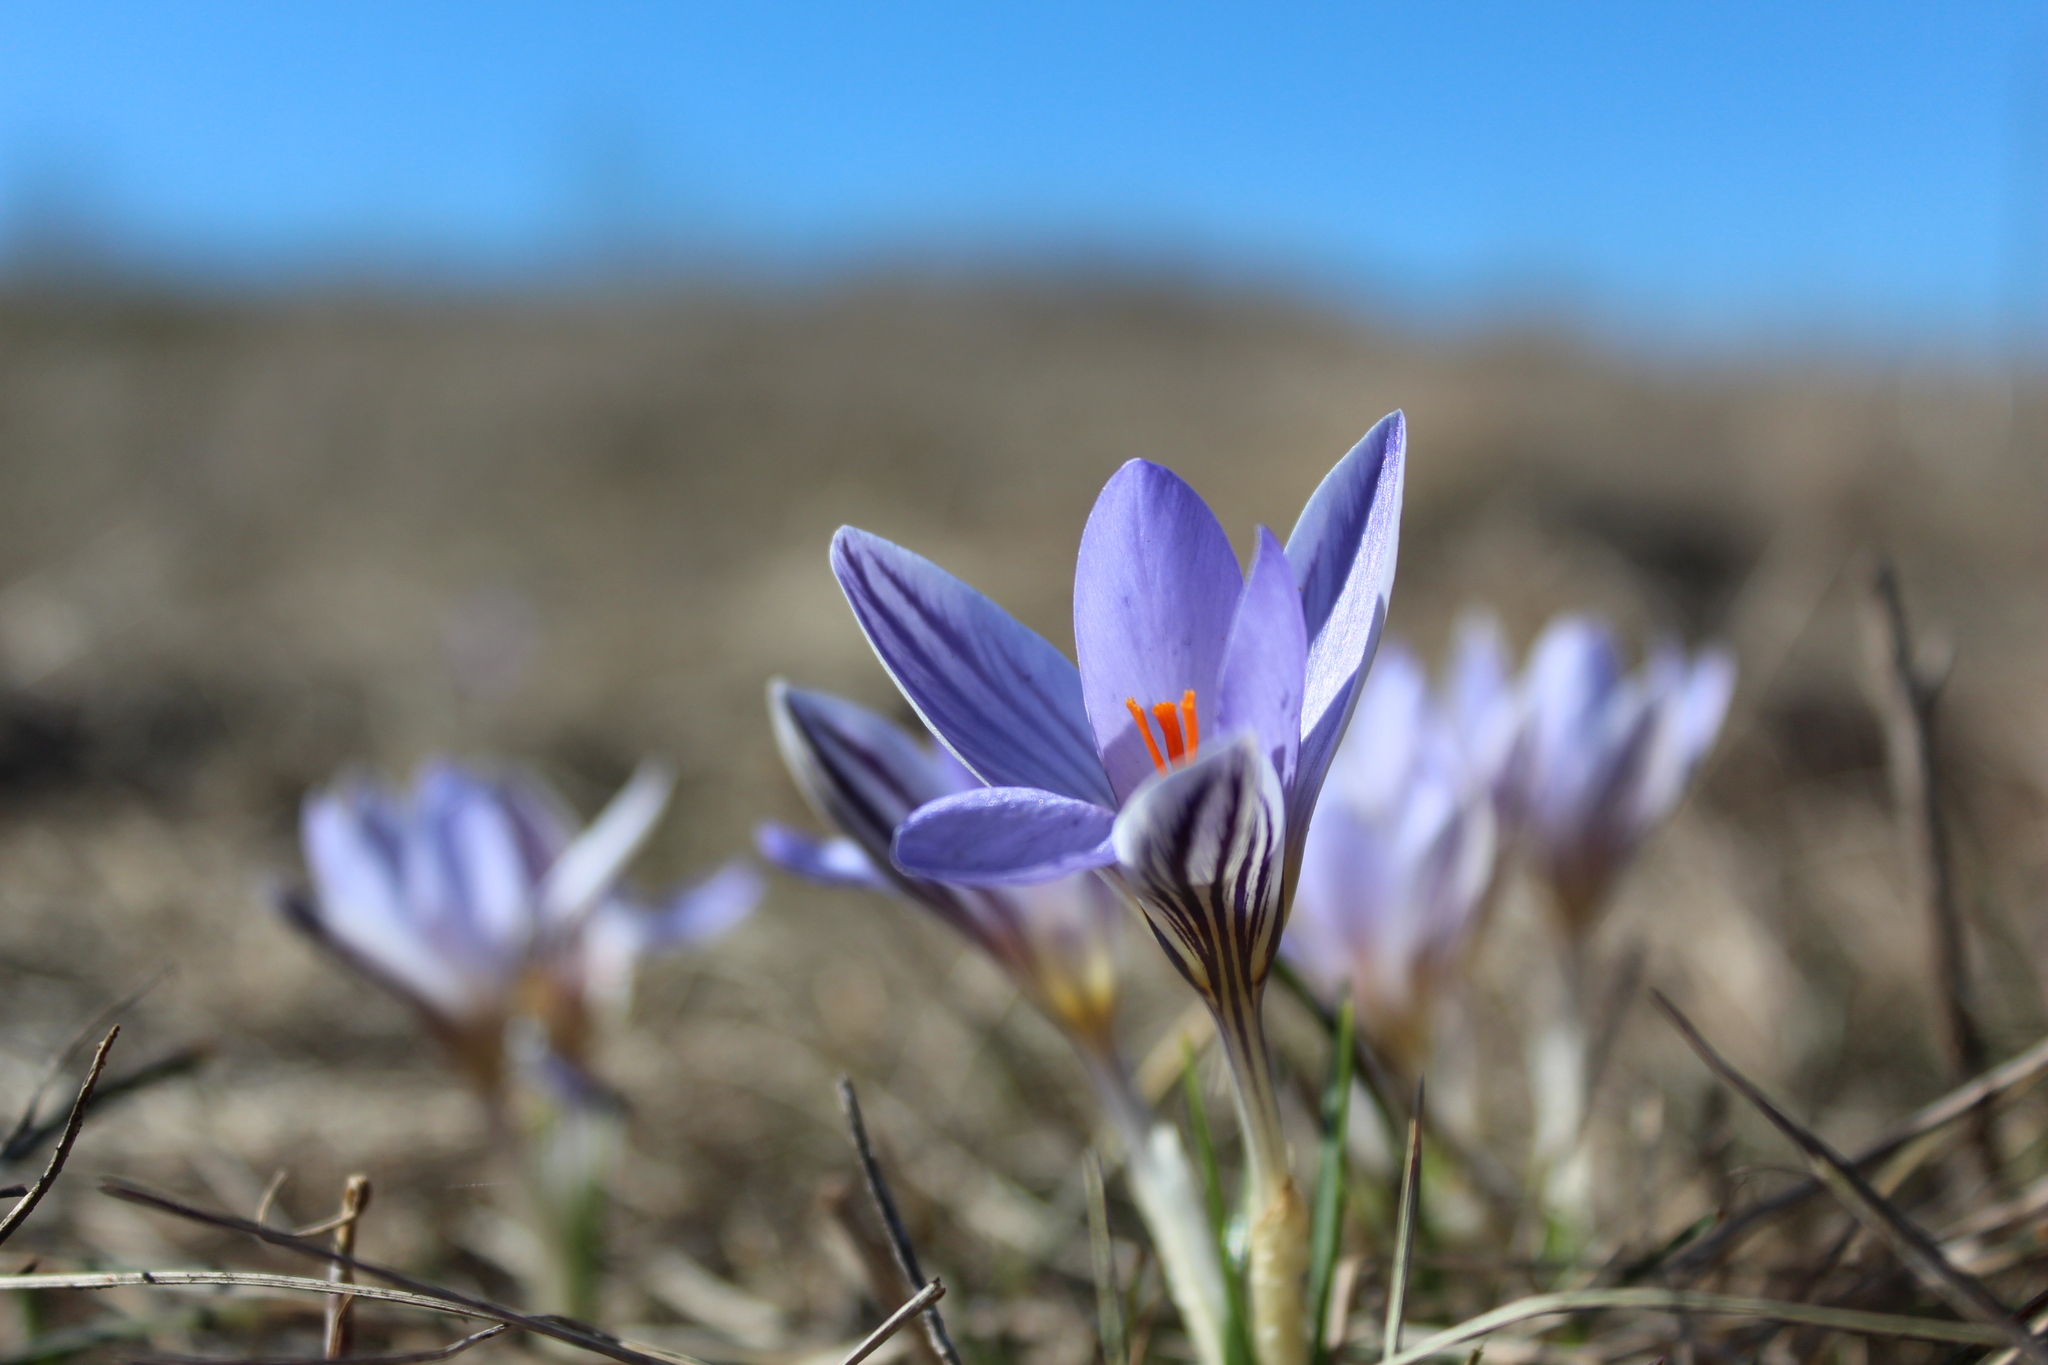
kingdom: Plantae
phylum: Tracheophyta
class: Liliopsida
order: Asparagales
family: Iridaceae
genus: Crocus
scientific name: Crocus reticulatus
